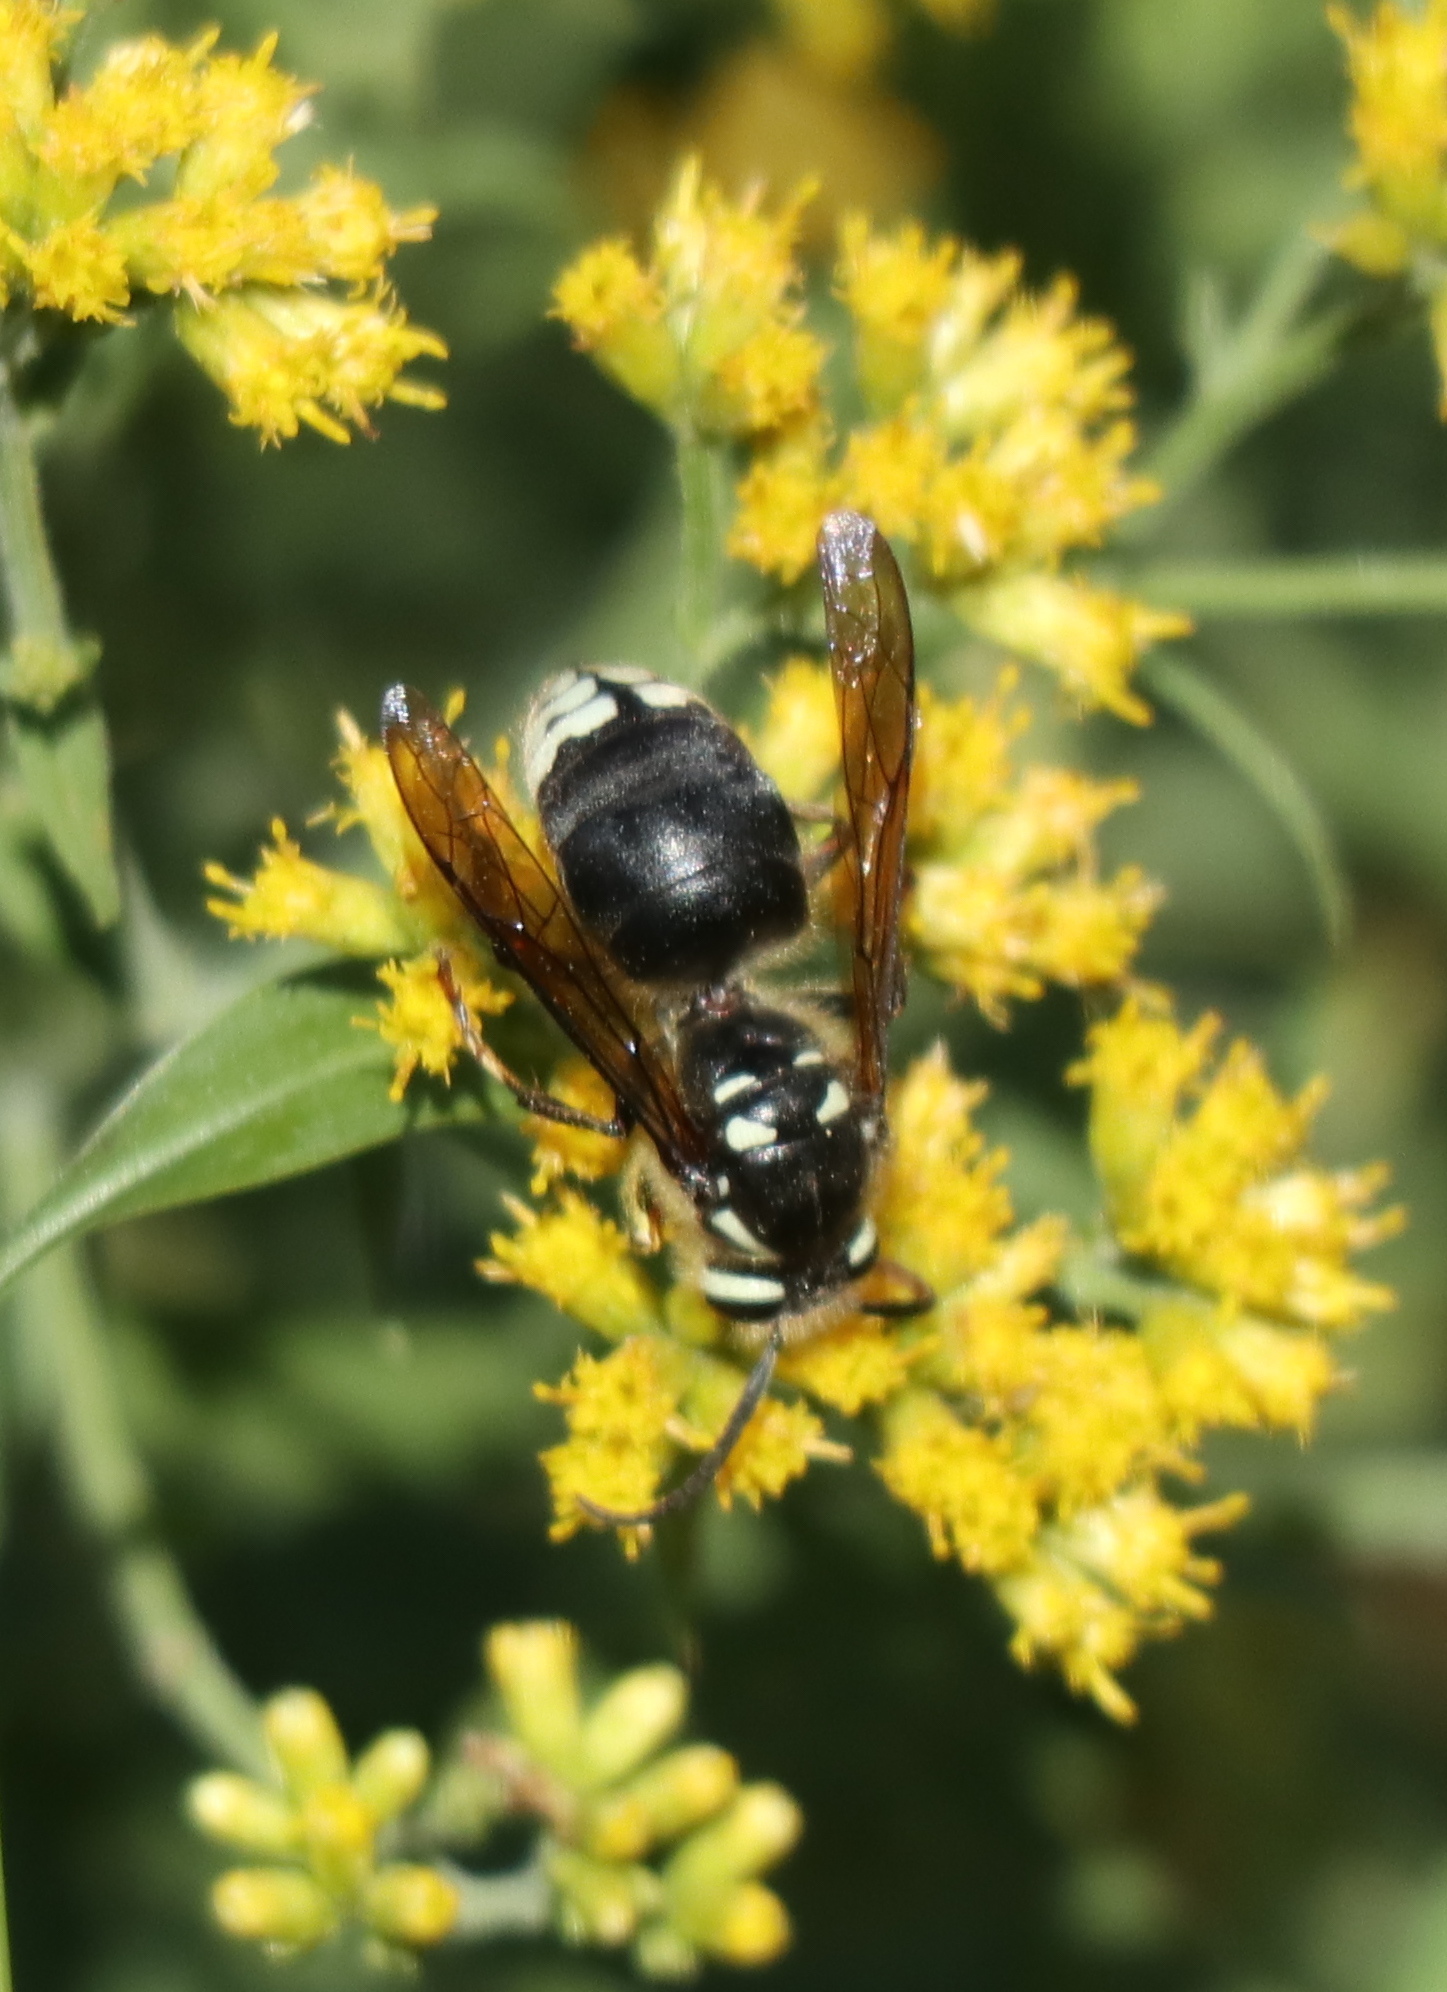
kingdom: Animalia
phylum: Arthropoda
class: Insecta
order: Hymenoptera
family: Vespidae
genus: Dolichovespula
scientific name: Dolichovespula maculata
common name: Bald-faced hornet
